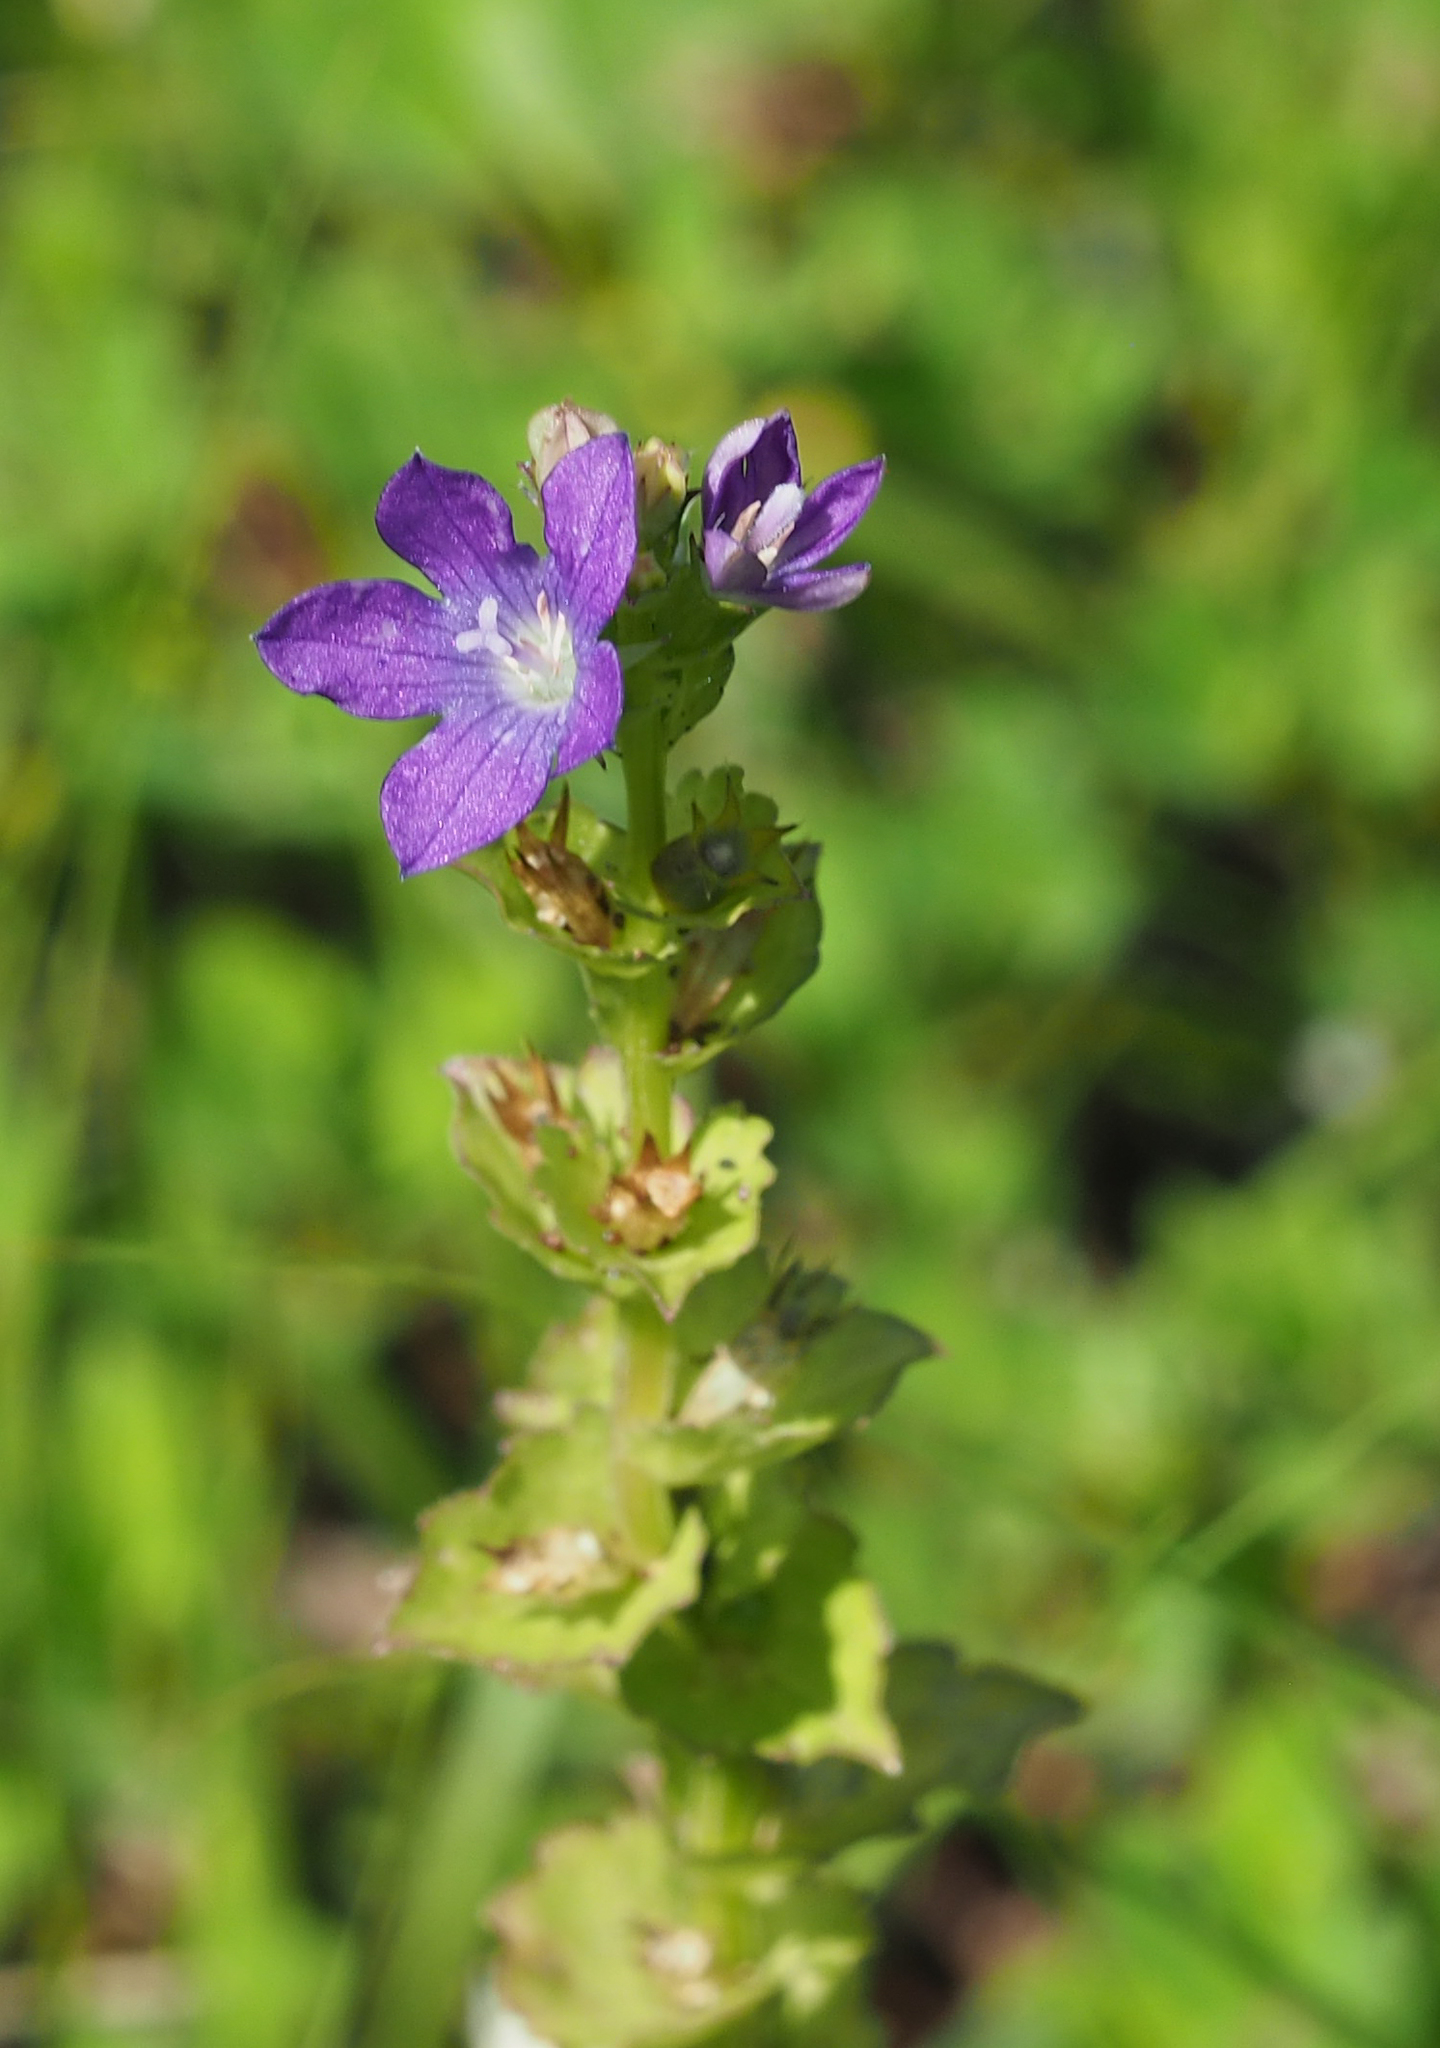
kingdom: Plantae
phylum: Tracheophyta
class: Magnoliopsida
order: Asterales
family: Campanulaceae
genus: Triodanis
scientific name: Triodanis perfoliata
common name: Clasping venus' looking-glass
